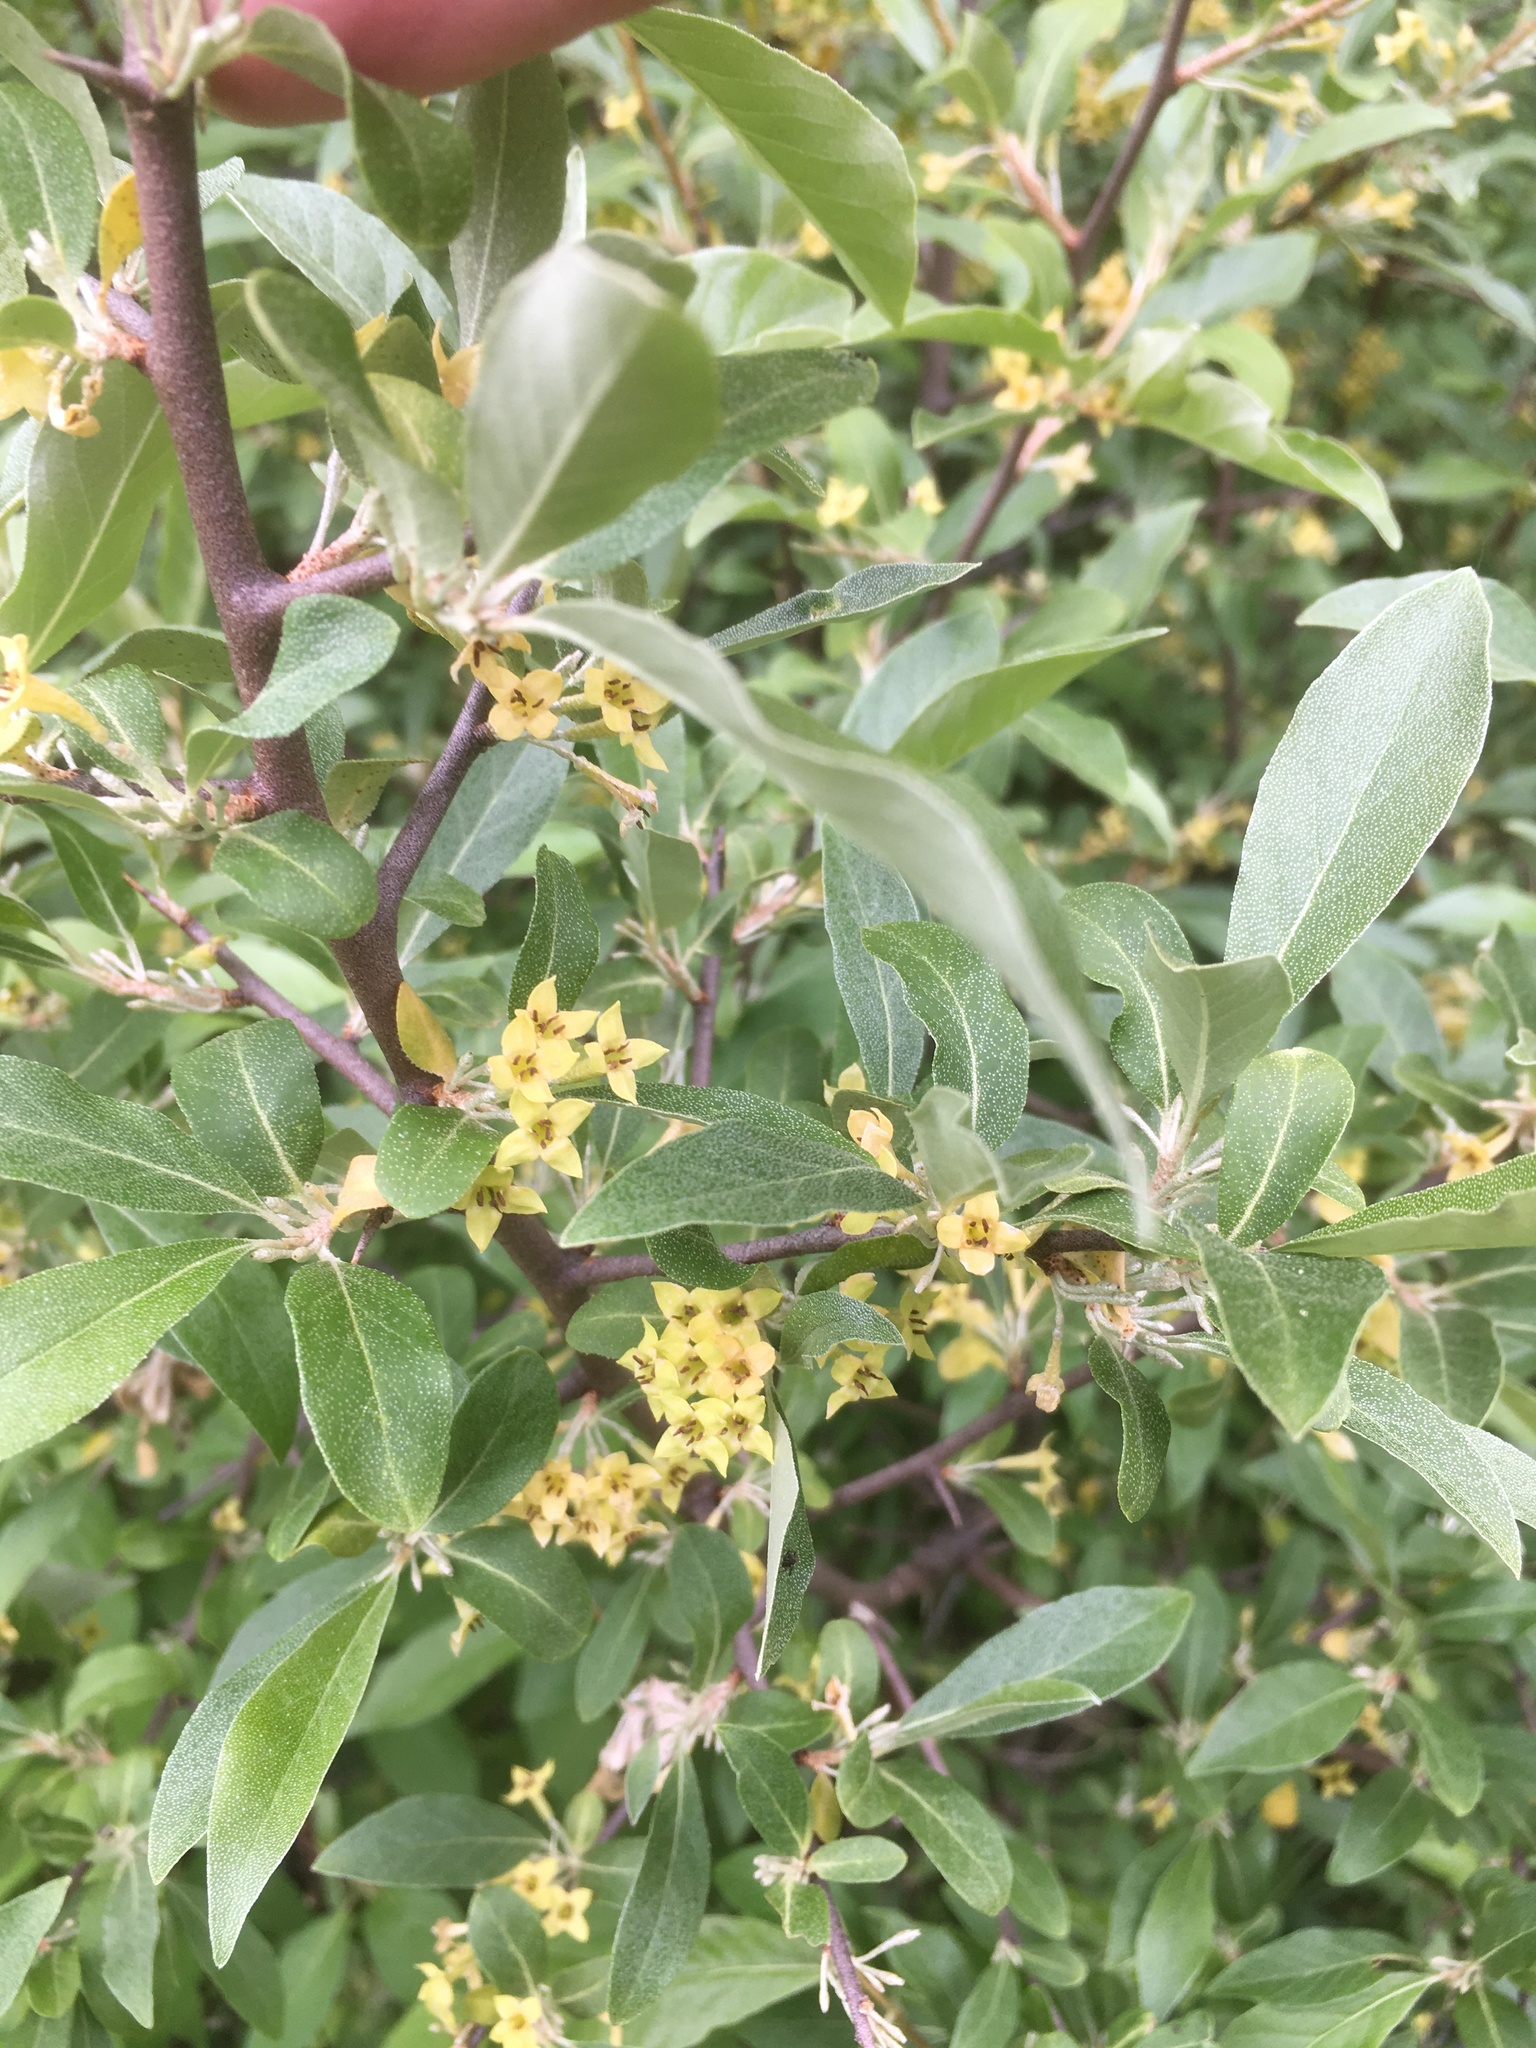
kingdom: Plantae
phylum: Tracheophyta
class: Magnoliopsida
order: Rosales
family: Elaeagnaceae
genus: Elaeagnus
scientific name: Elaeagnus umbellata
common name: Autumn olive
